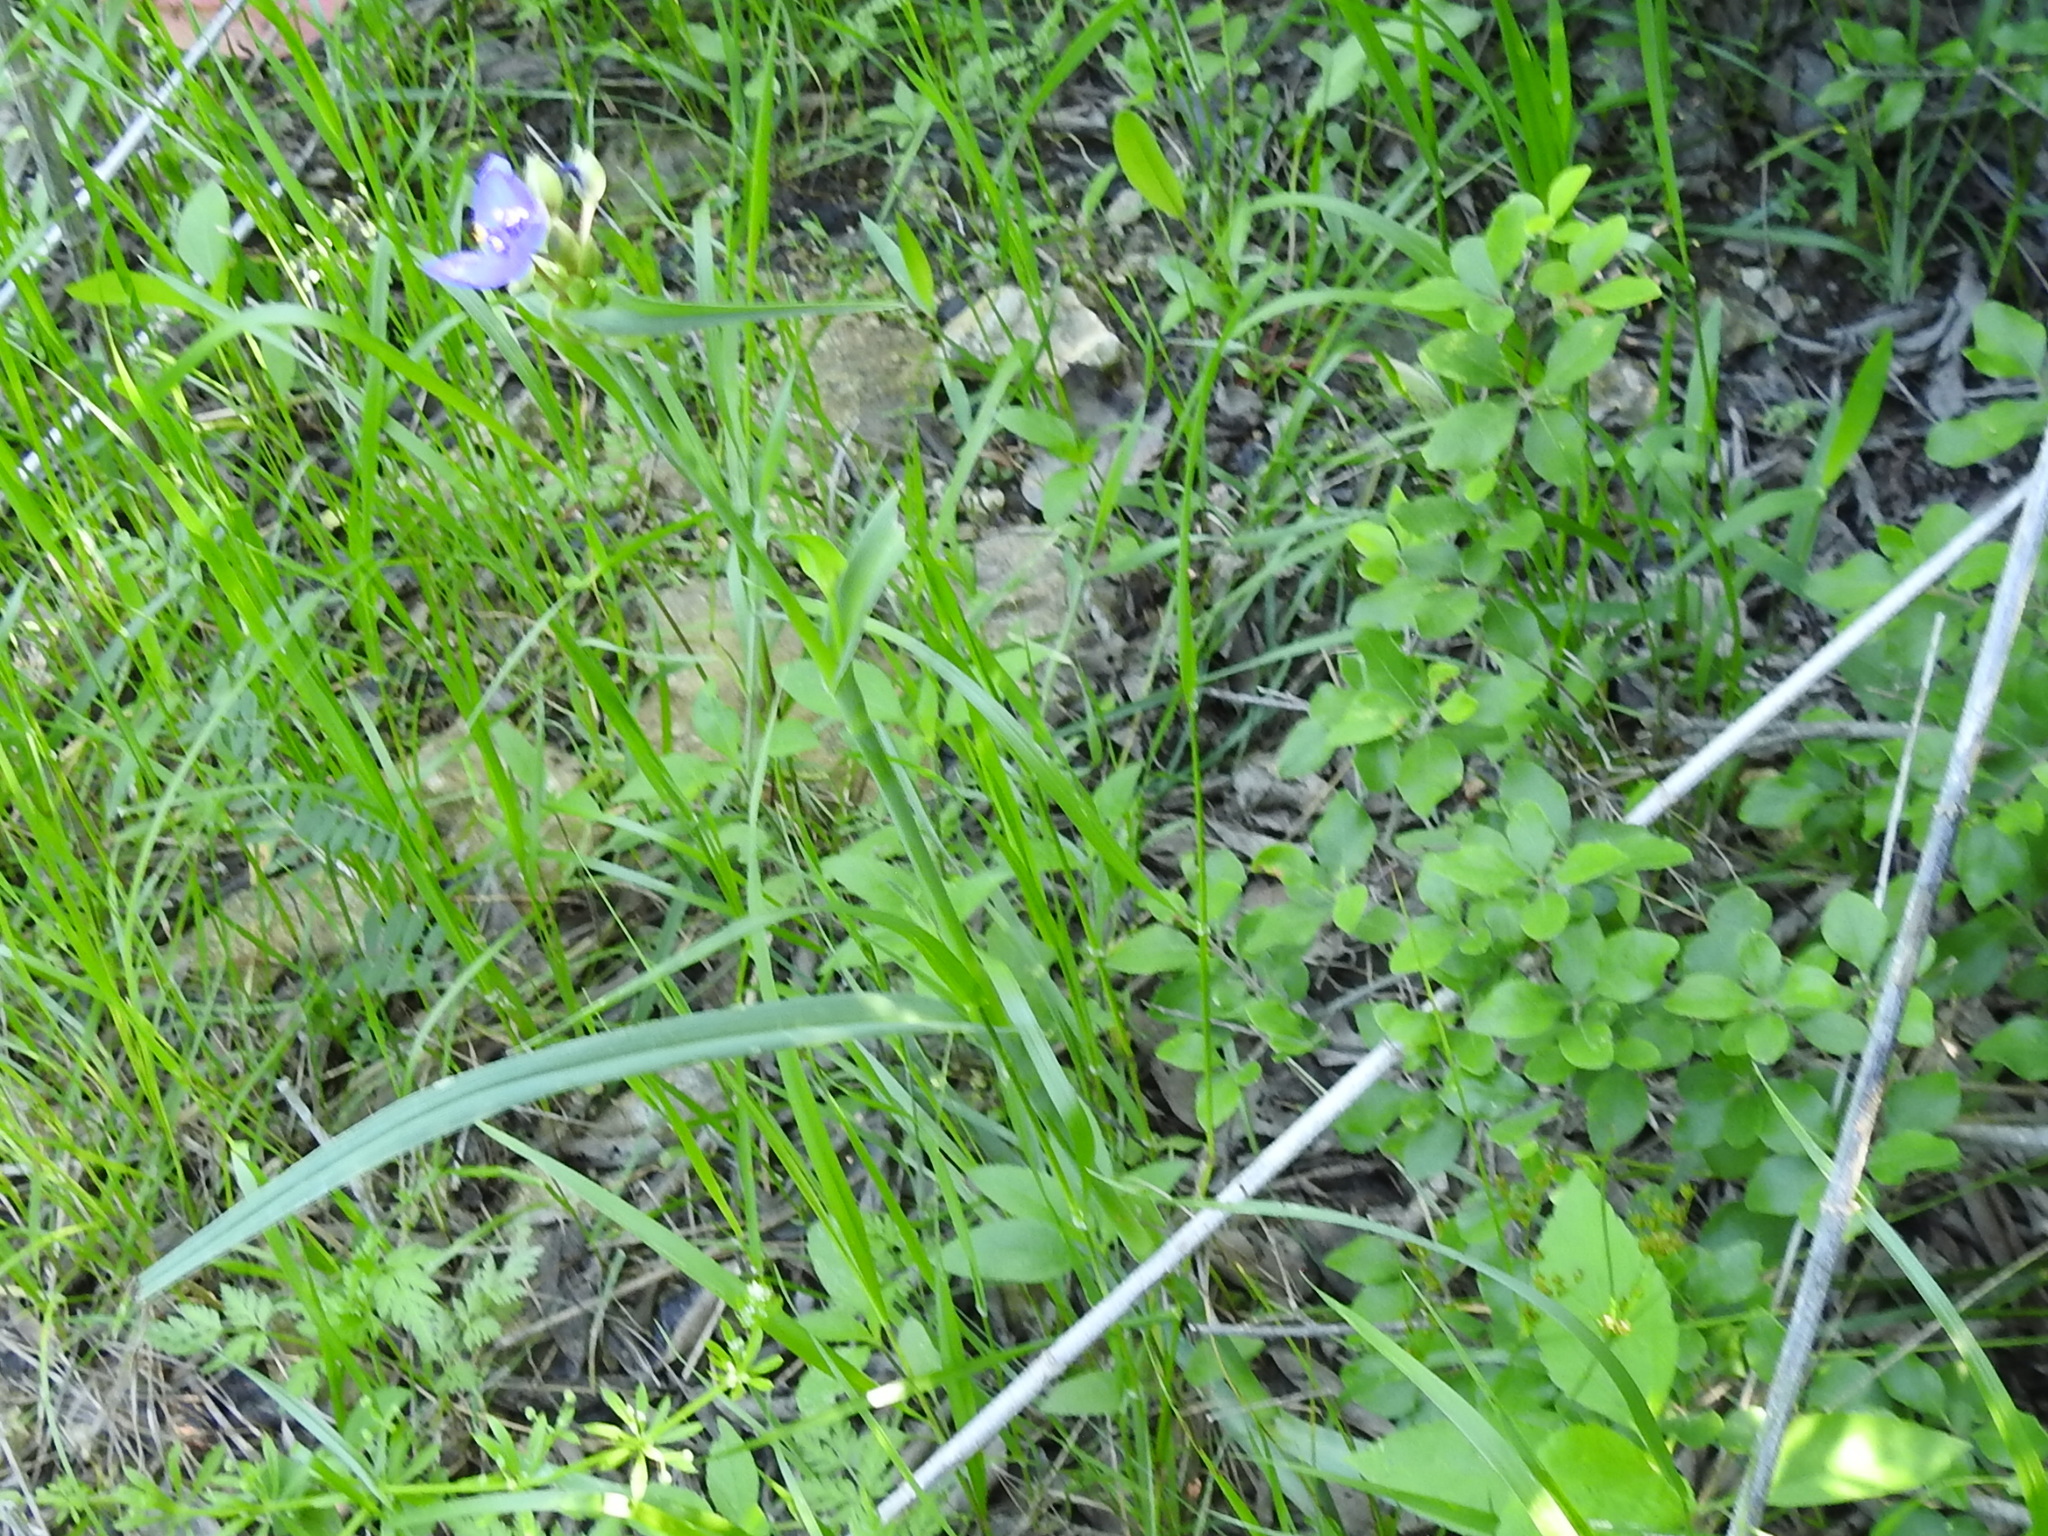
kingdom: Plantae
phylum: Tracheophyta
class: Liliopsida
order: Commelinales
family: Commelinaceae
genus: Tradescantia
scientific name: Tradescantia ohiensis
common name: Ohio spiderwort
